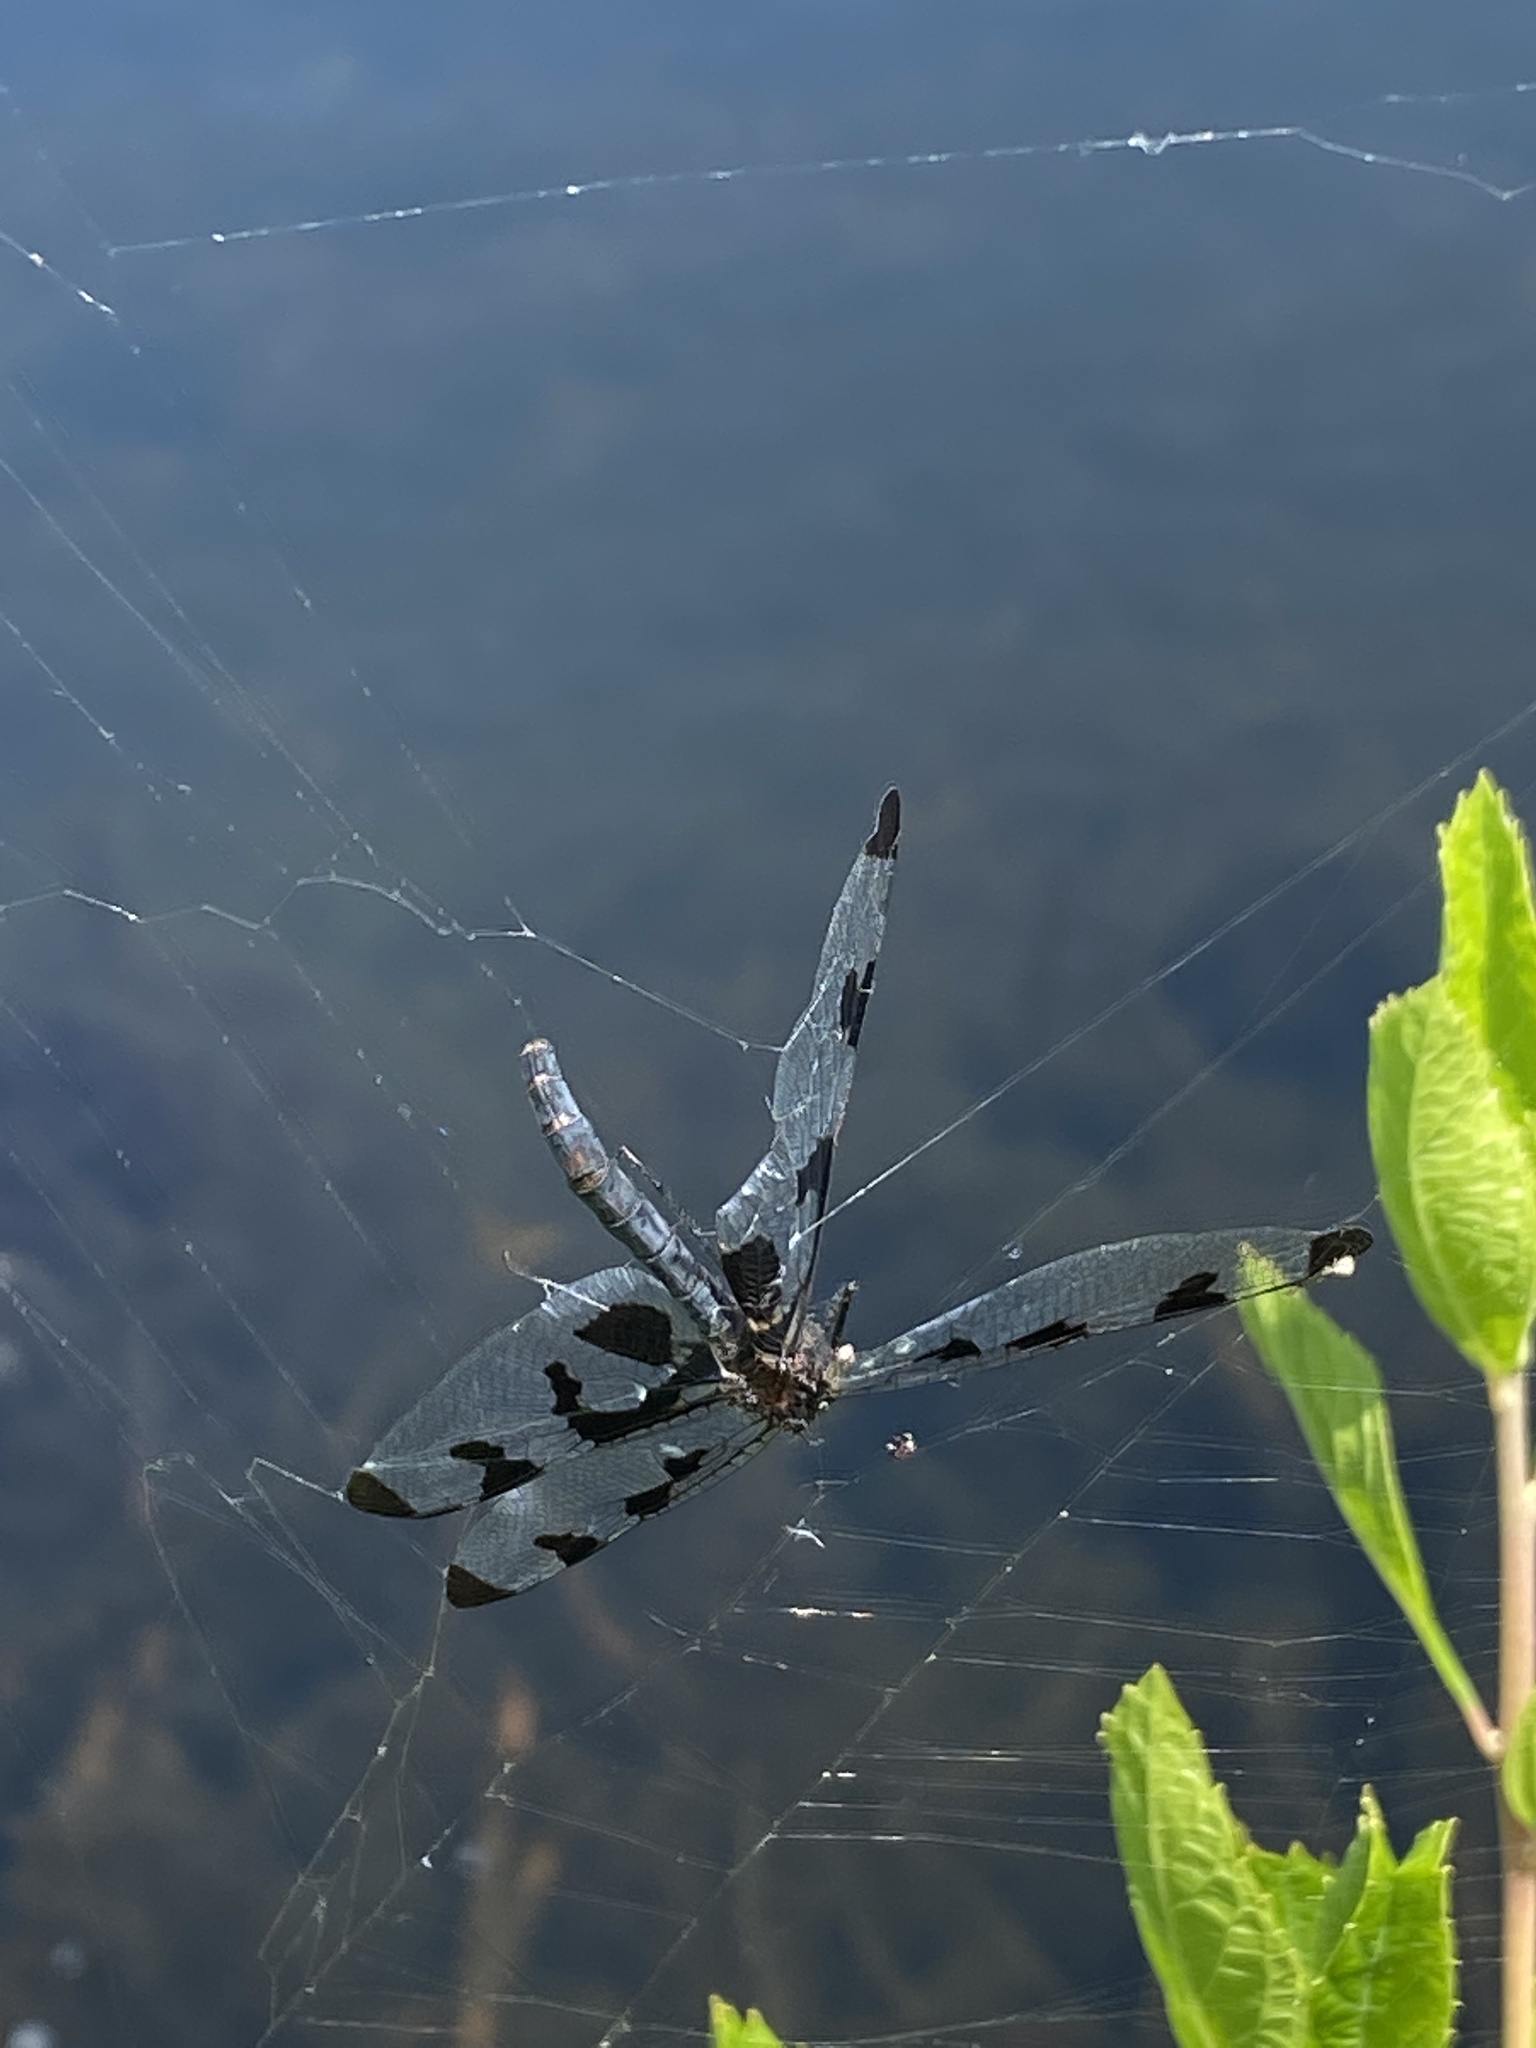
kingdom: Animalia
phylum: Arthropoda
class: Insecta
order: Odonata
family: Libellulidae
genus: Celithemis
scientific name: Celithemis fasciata
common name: Banded pennant
